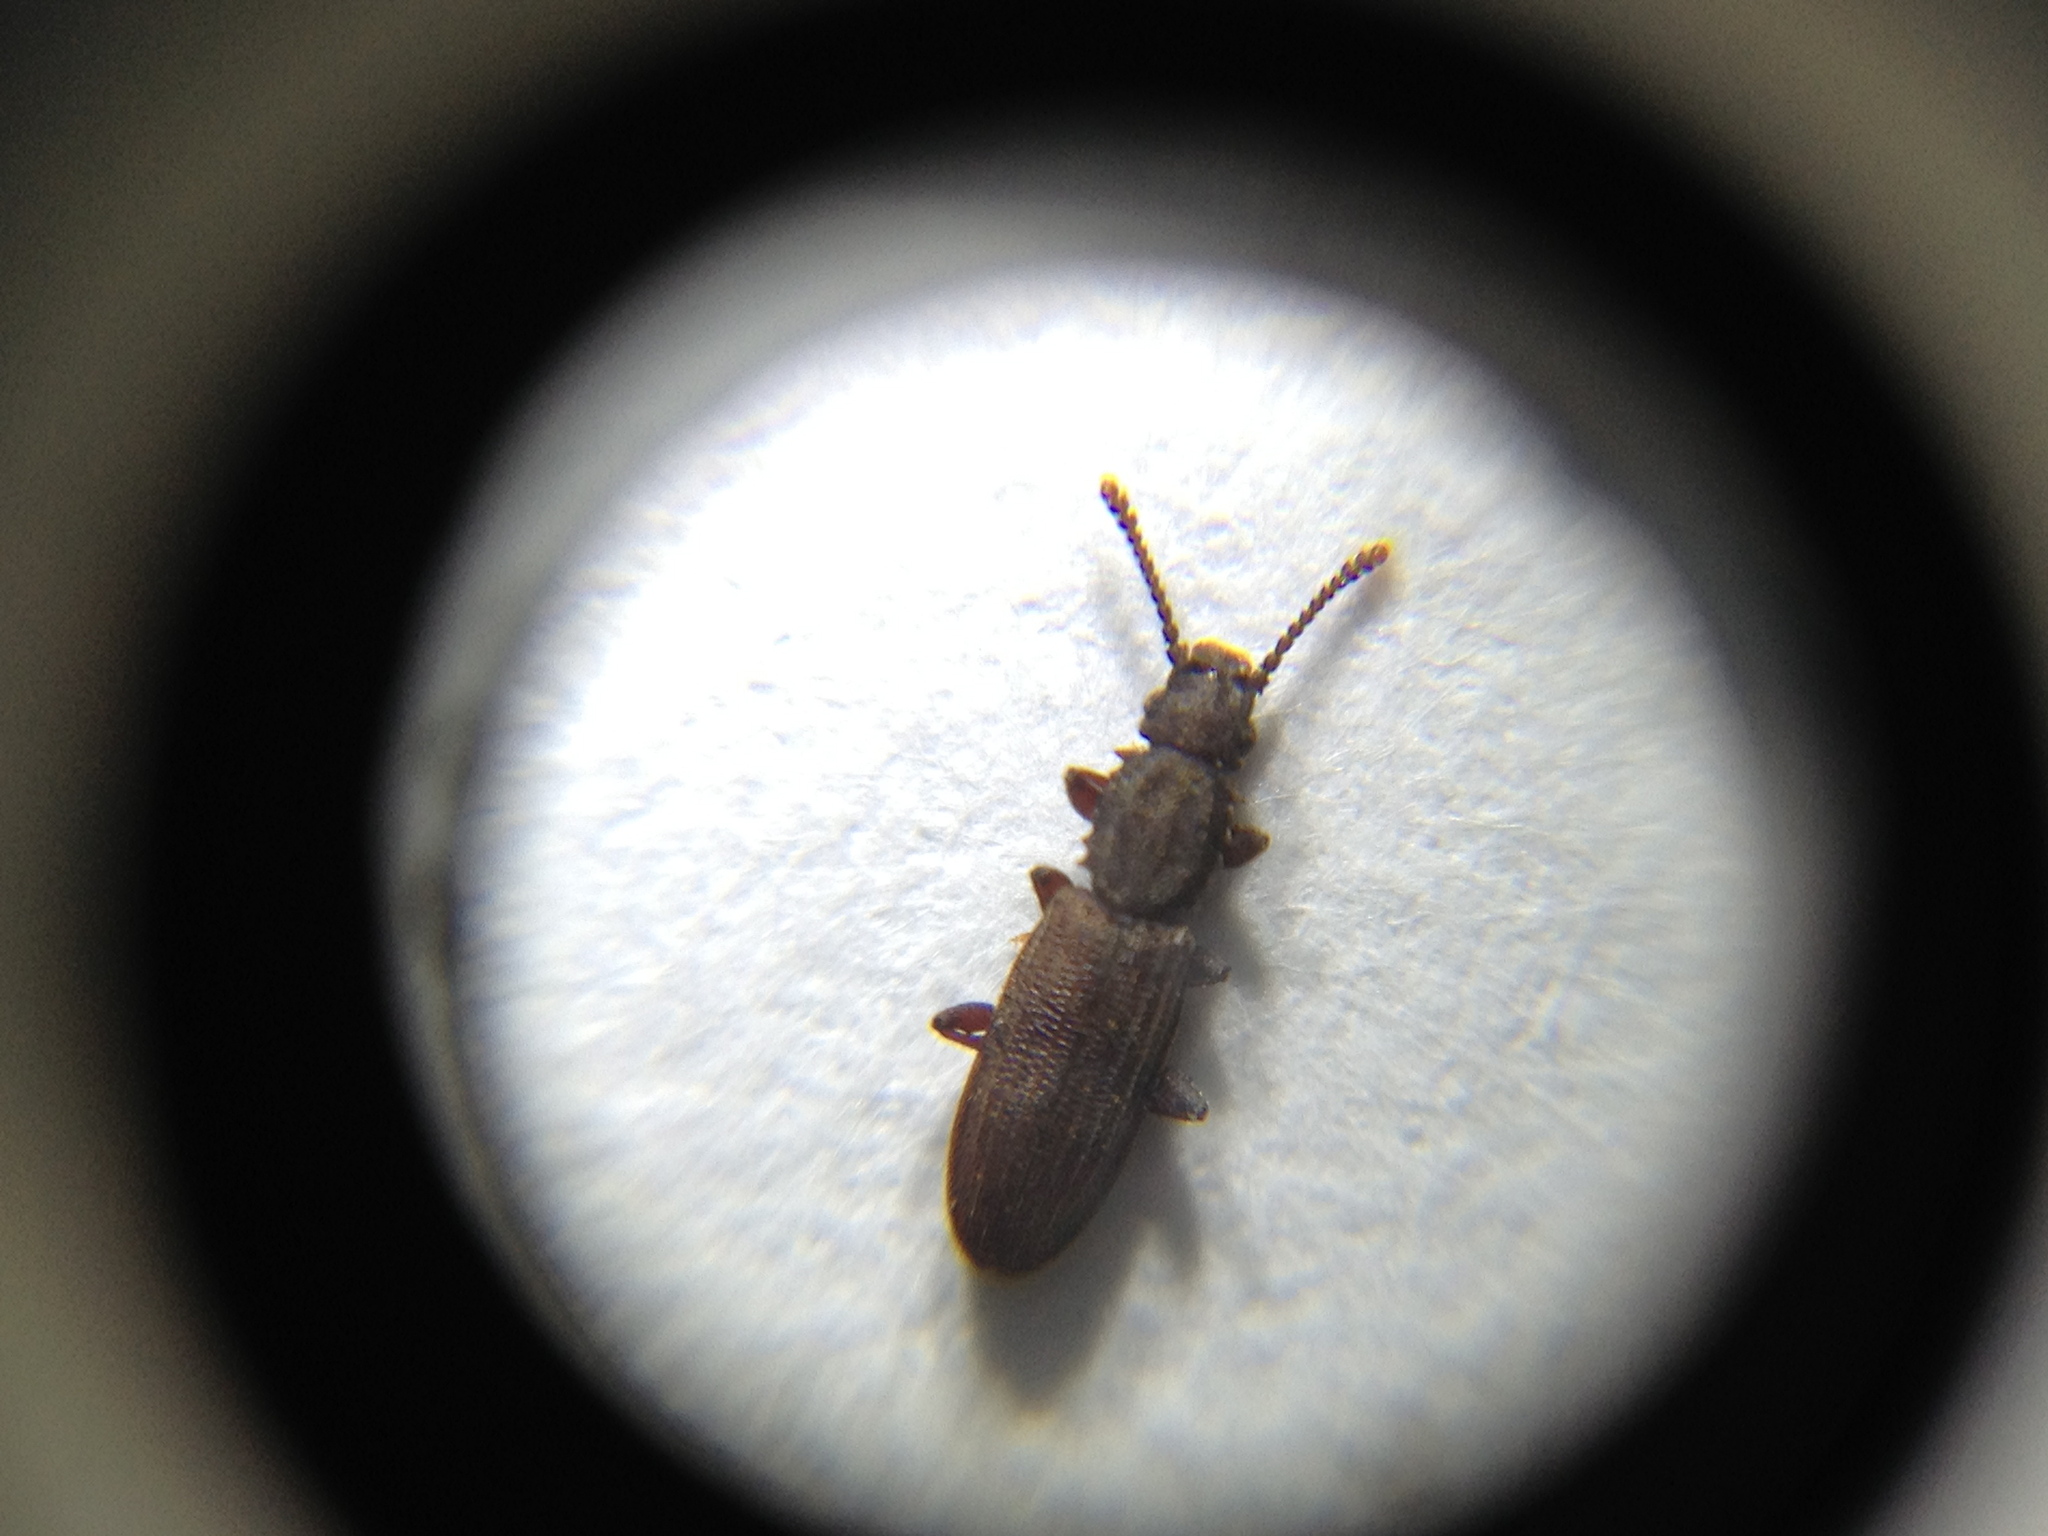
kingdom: Animalia
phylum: Arthropoda
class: Insecta
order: Coleoptera
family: Silvanidae
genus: Oryzaephilus
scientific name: Oryzaephilus surinamensis
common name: Sawtoothed grain beetle
